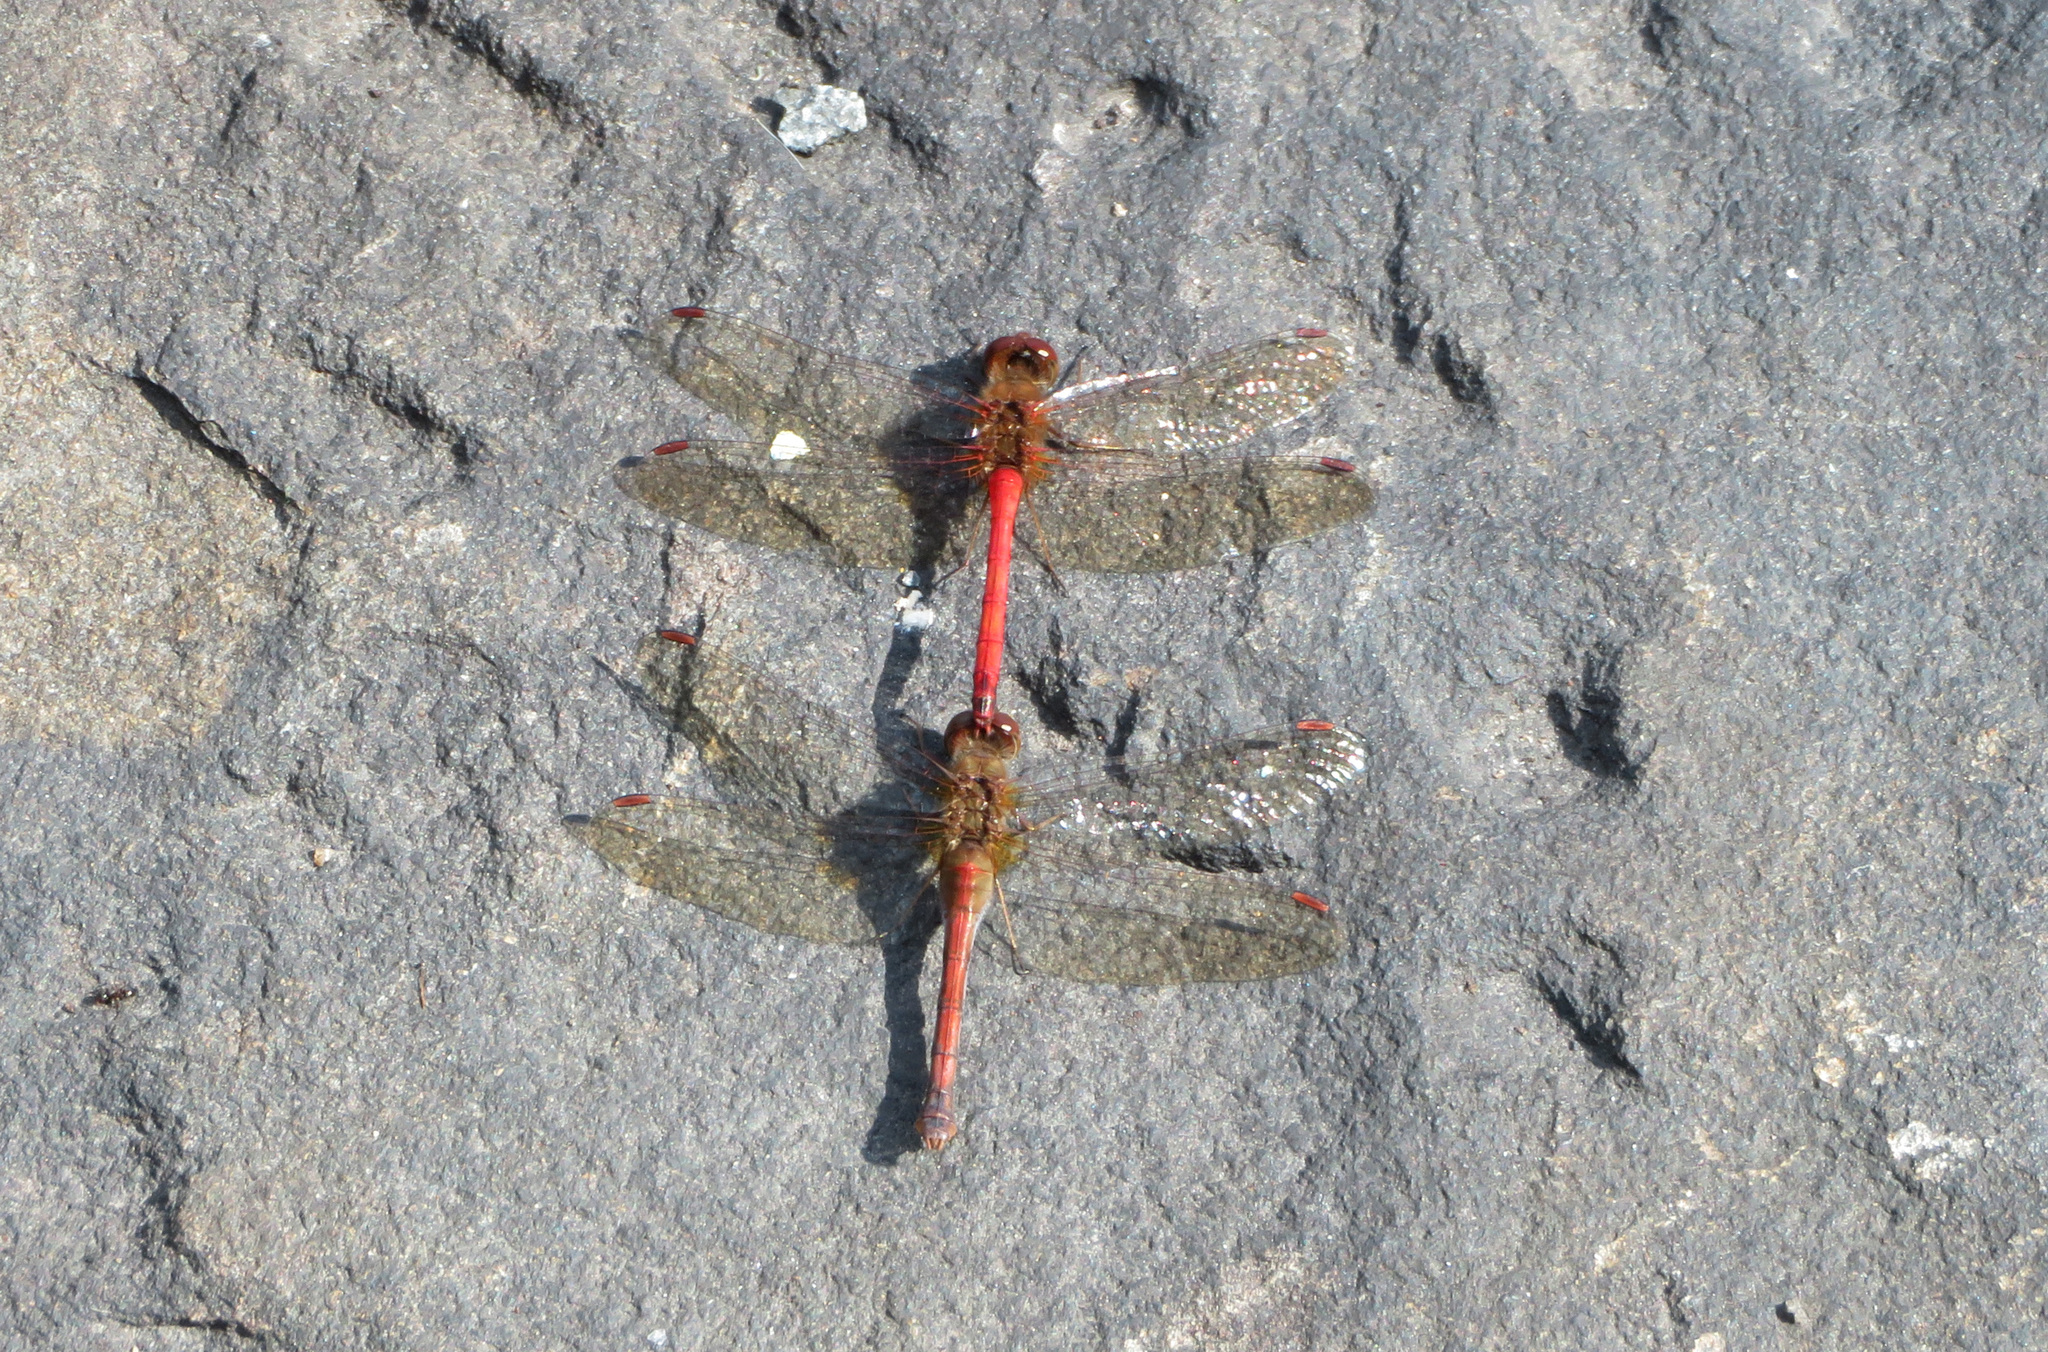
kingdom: Animalia
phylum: Arthropoda
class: Insecta
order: Odonata
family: Libellulidae
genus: Sympetrum
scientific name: Sympetrum vicinum
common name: Autumn meadowhawk
